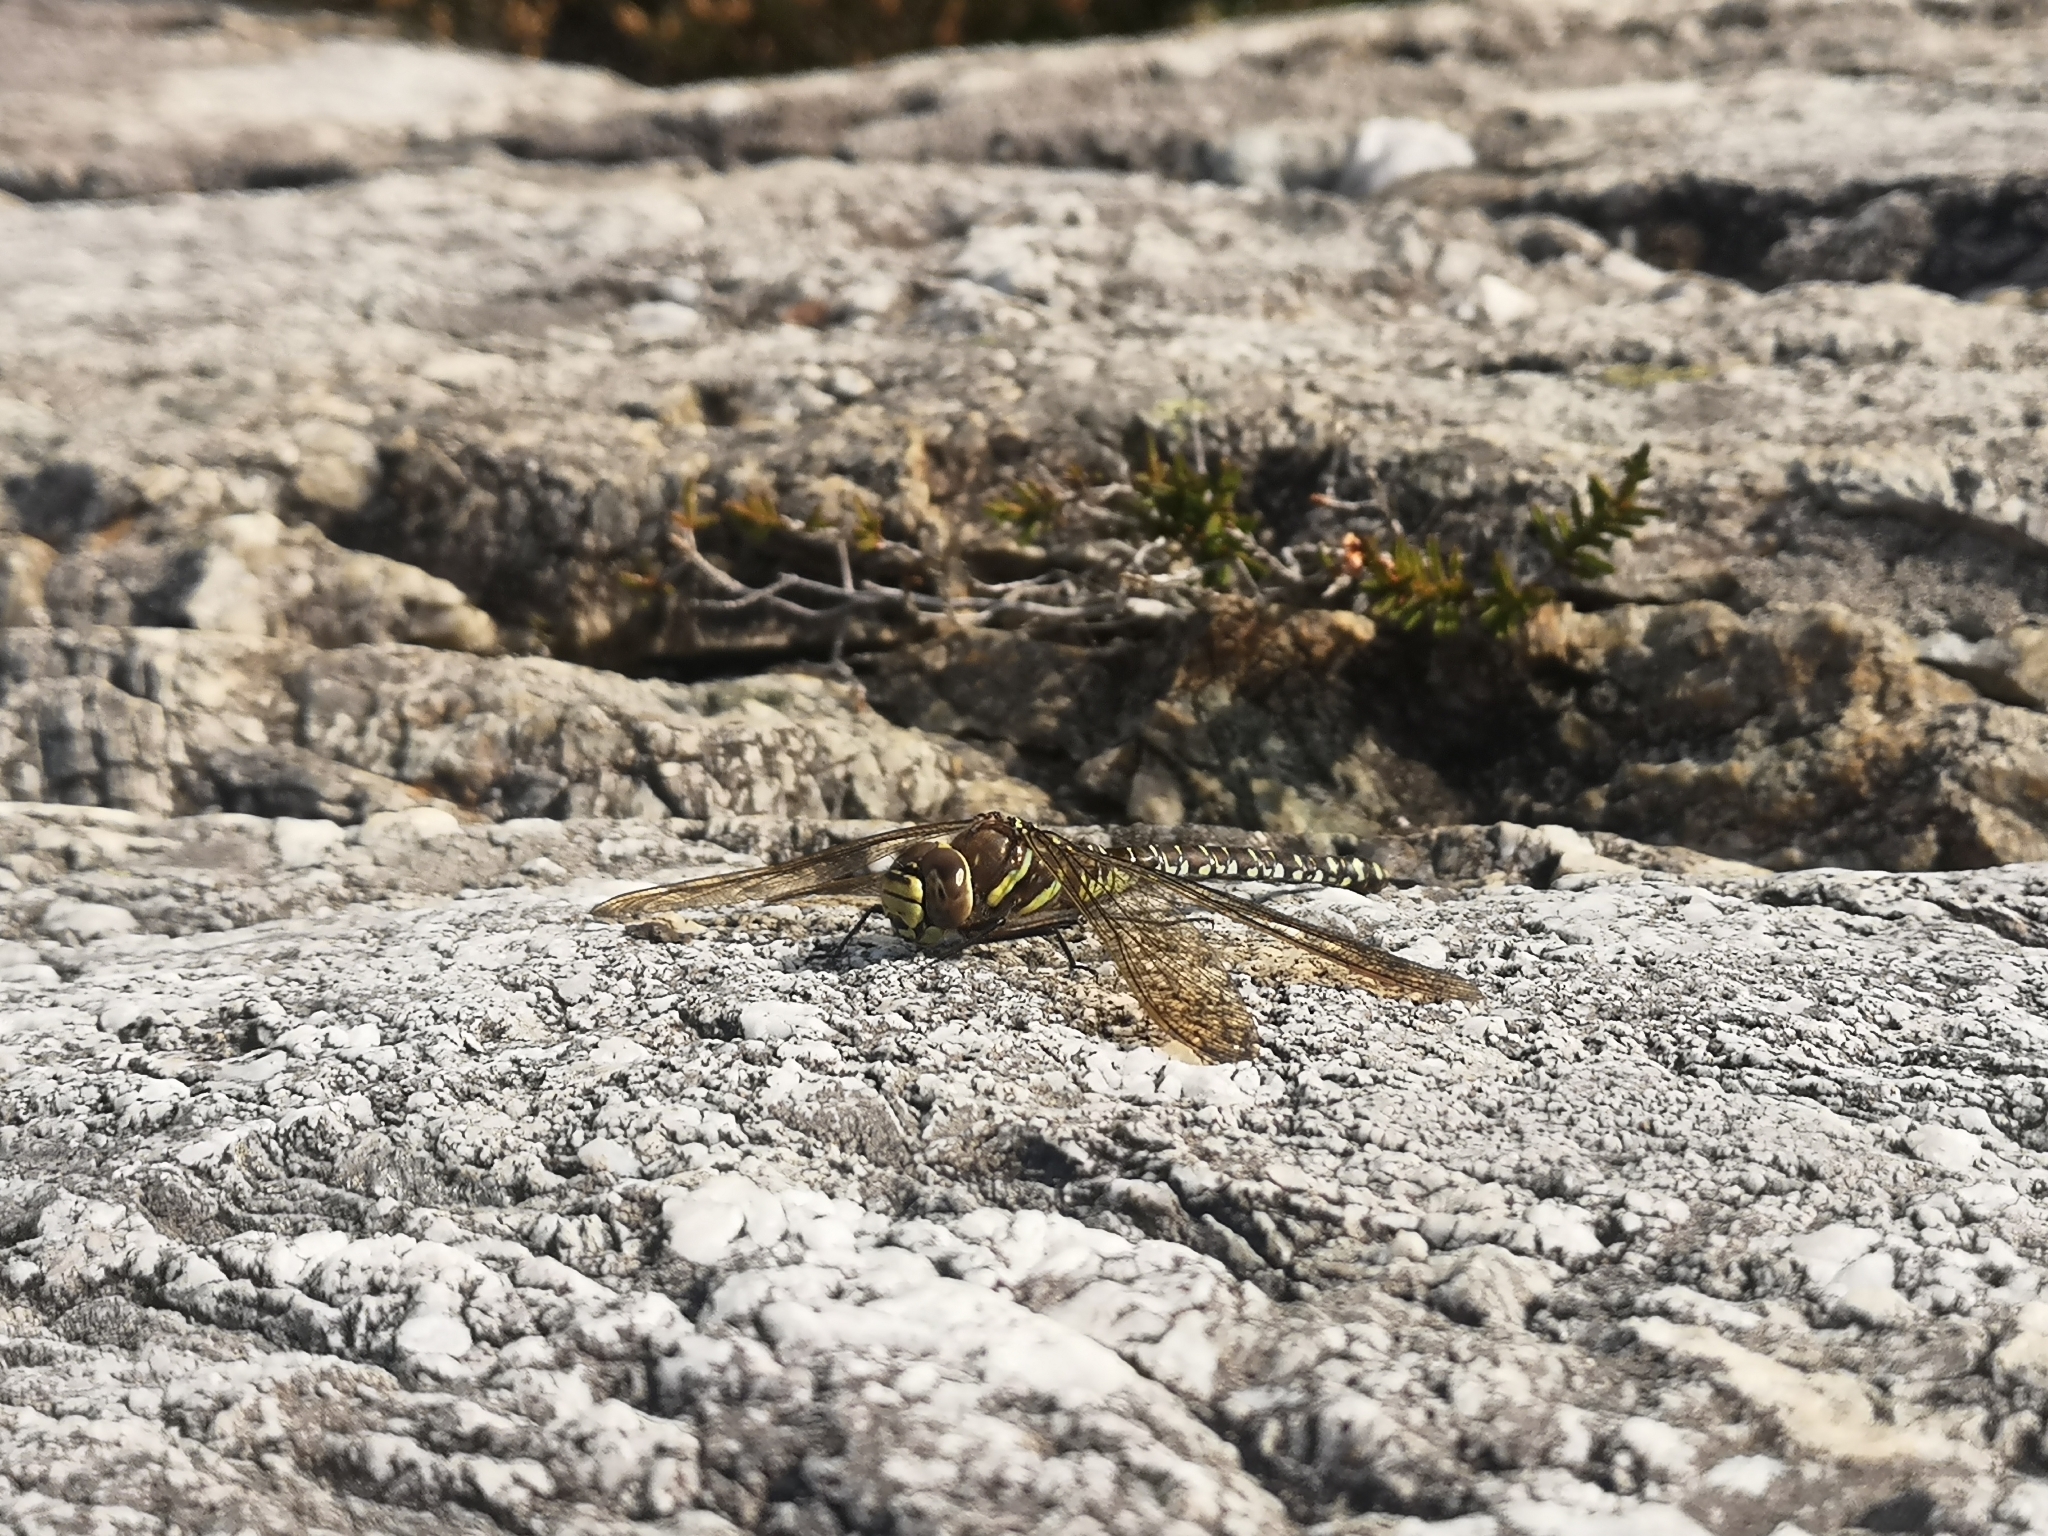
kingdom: Animalia
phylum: Arthropoda
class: Insecta
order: Odonata
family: Aeshnidae
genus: Aeshna
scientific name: Aeshna juncea
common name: Moorland hawker
